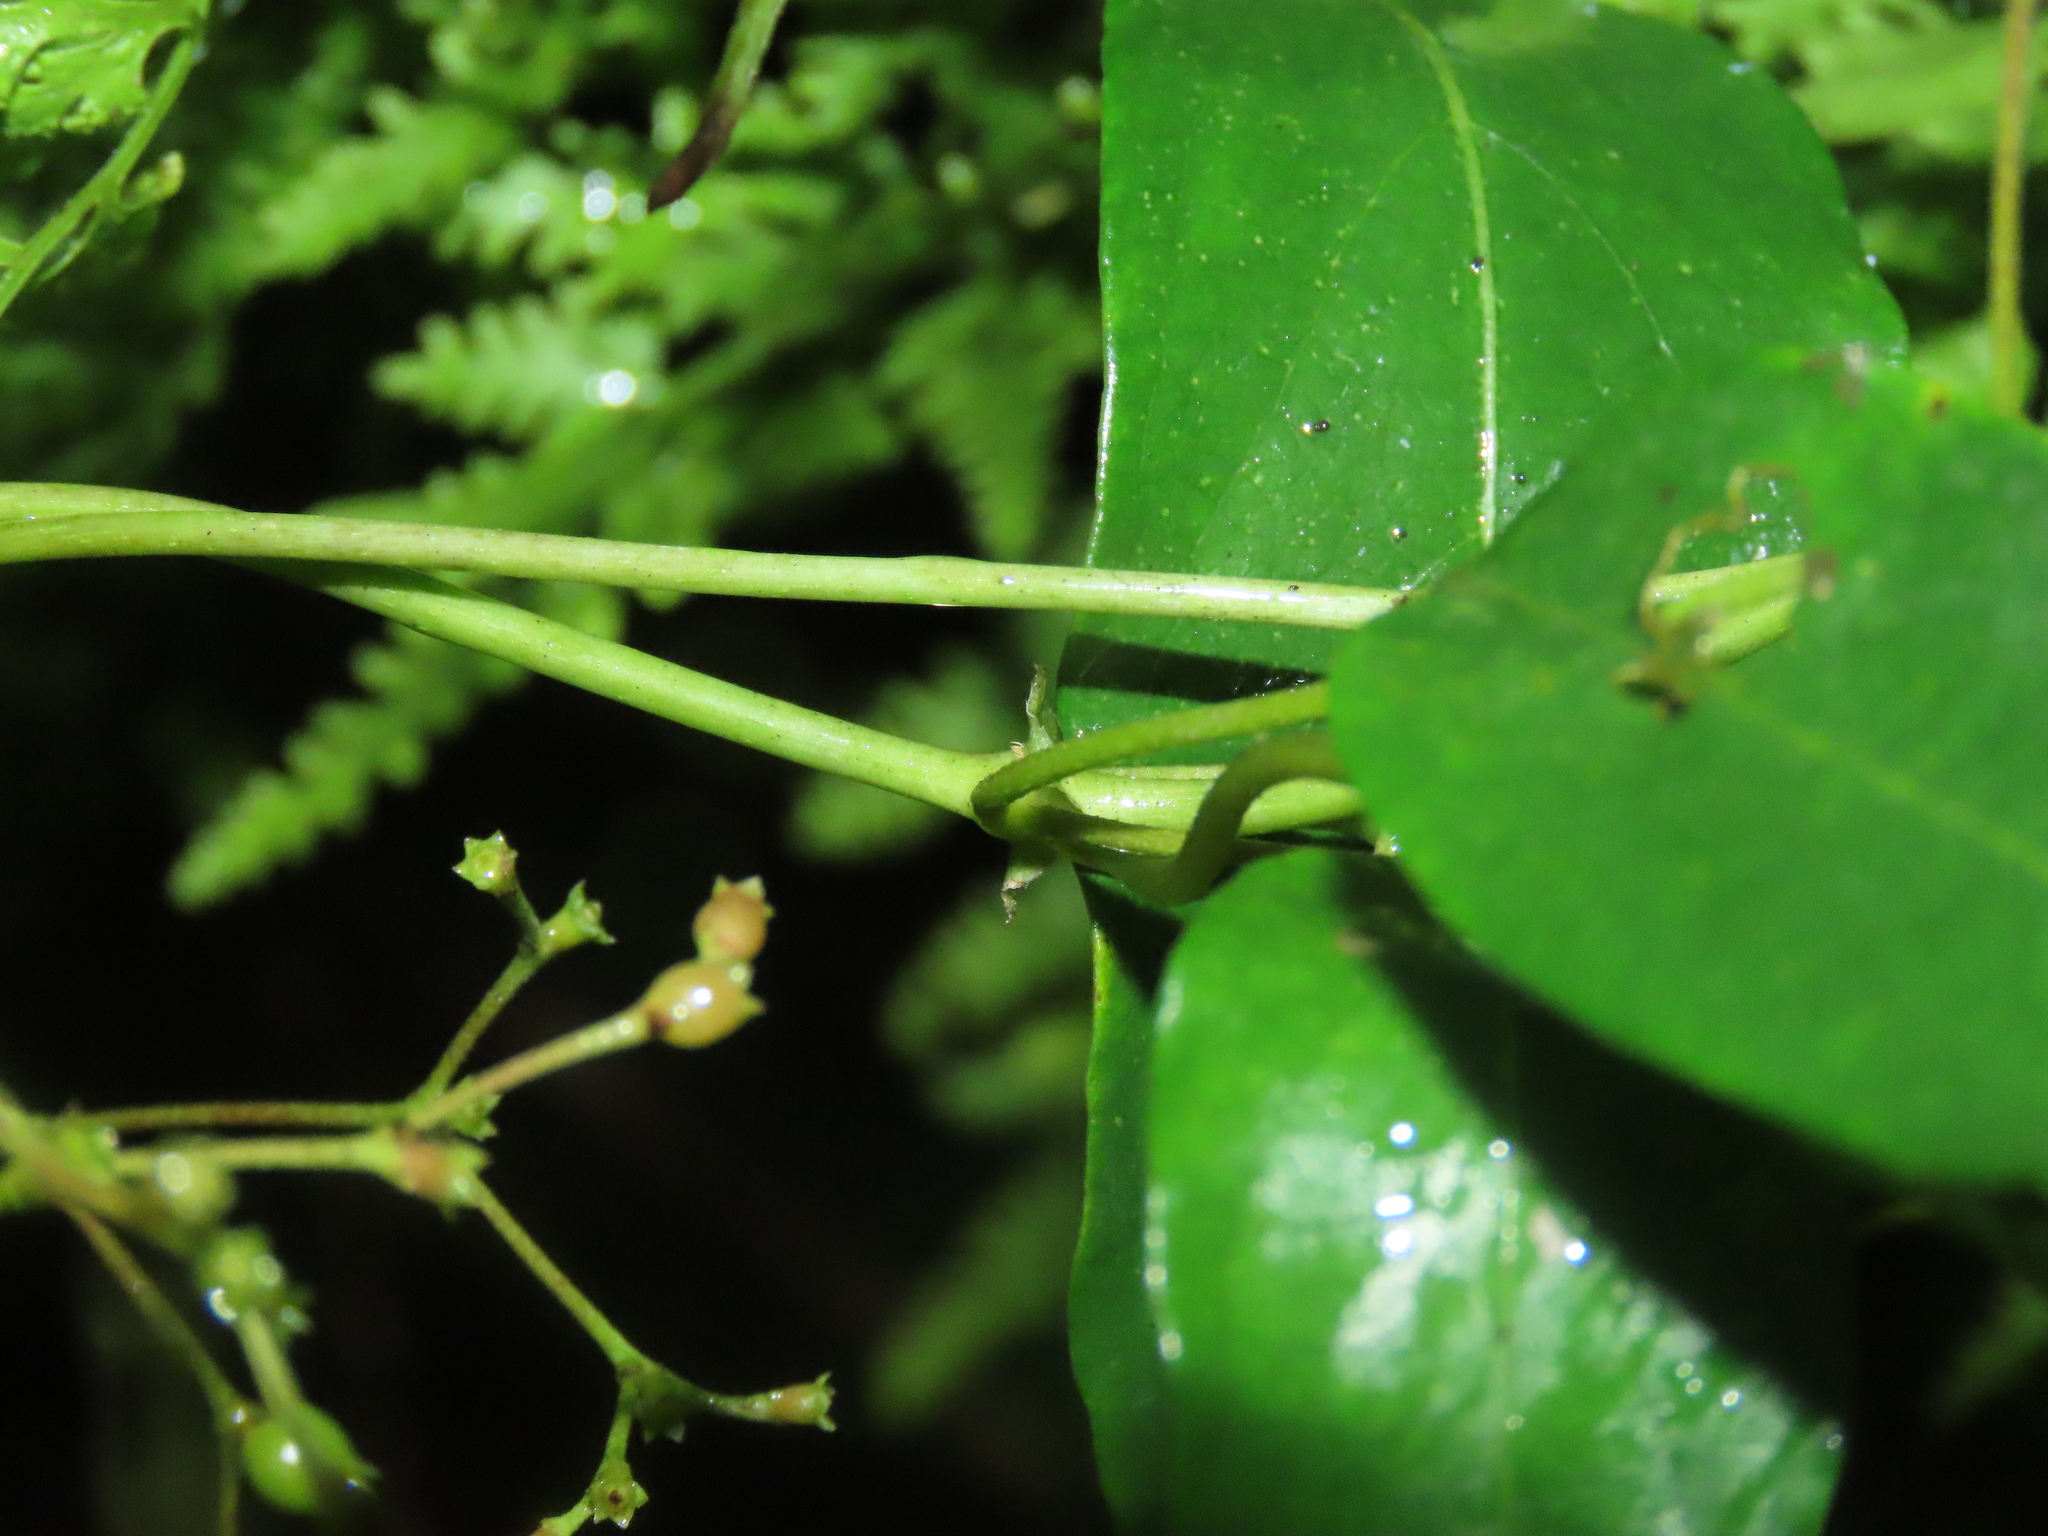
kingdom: Plantae
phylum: Tracheophyta
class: Magnoliopsida
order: Gentianales
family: Rubiaceae
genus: Paederia
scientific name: Paederia foetida
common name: Stinkvine
